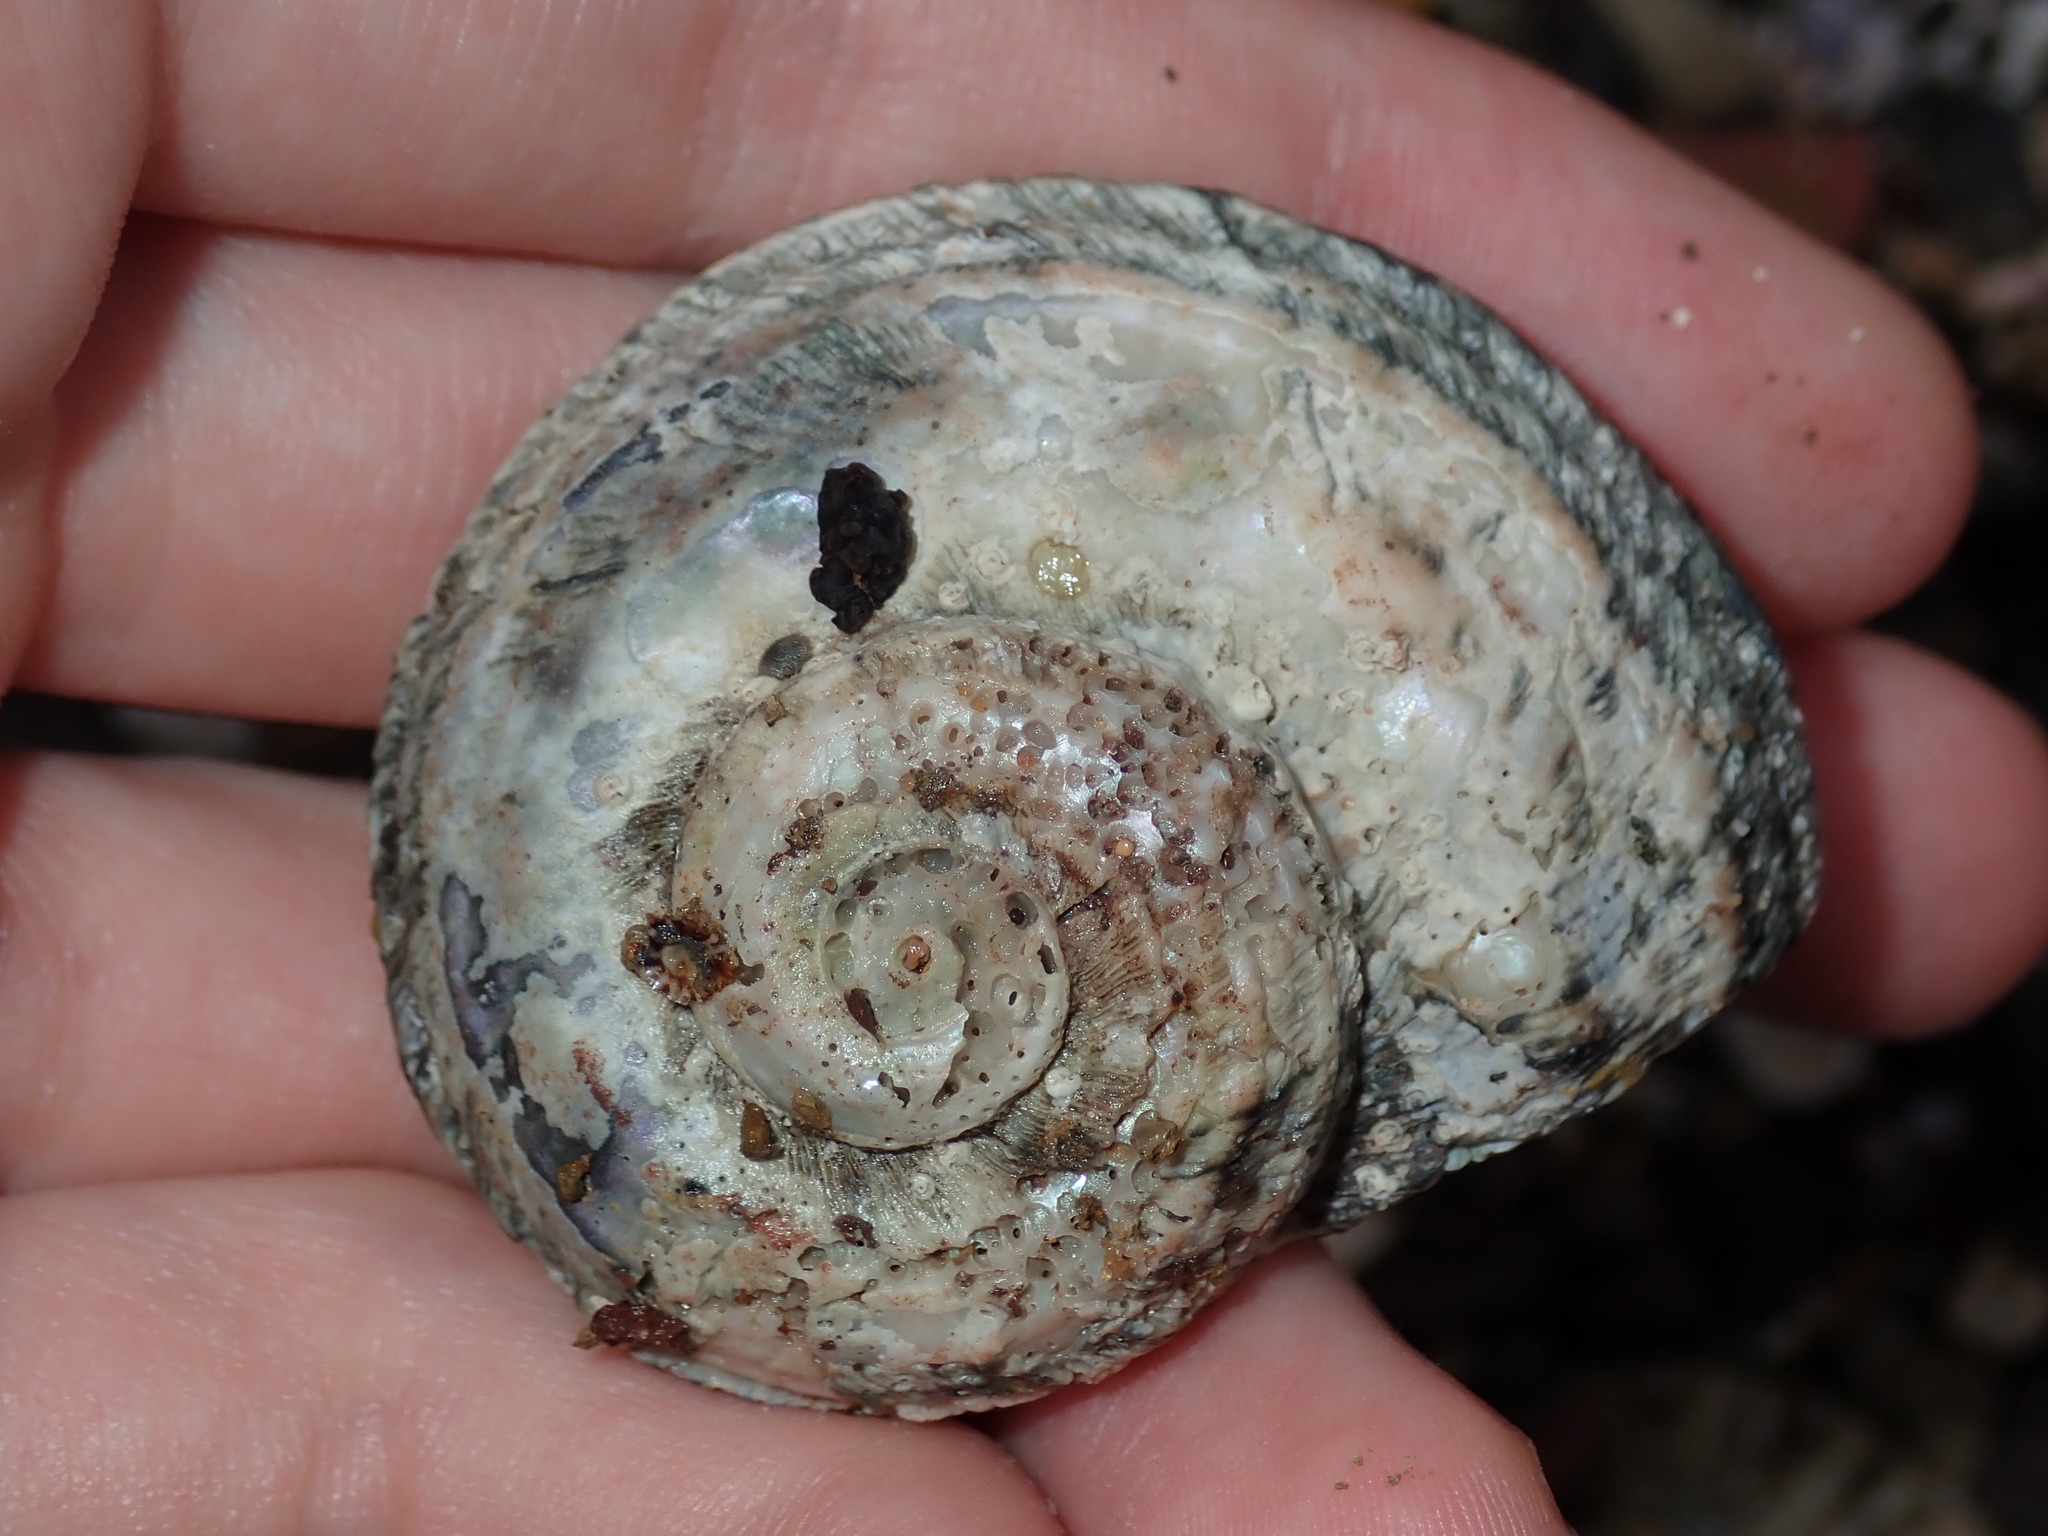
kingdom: Animalia
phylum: Mollusca
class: Gastropoda
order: Trochida
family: Turbinidae
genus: Lunella
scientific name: Lunella torquata
